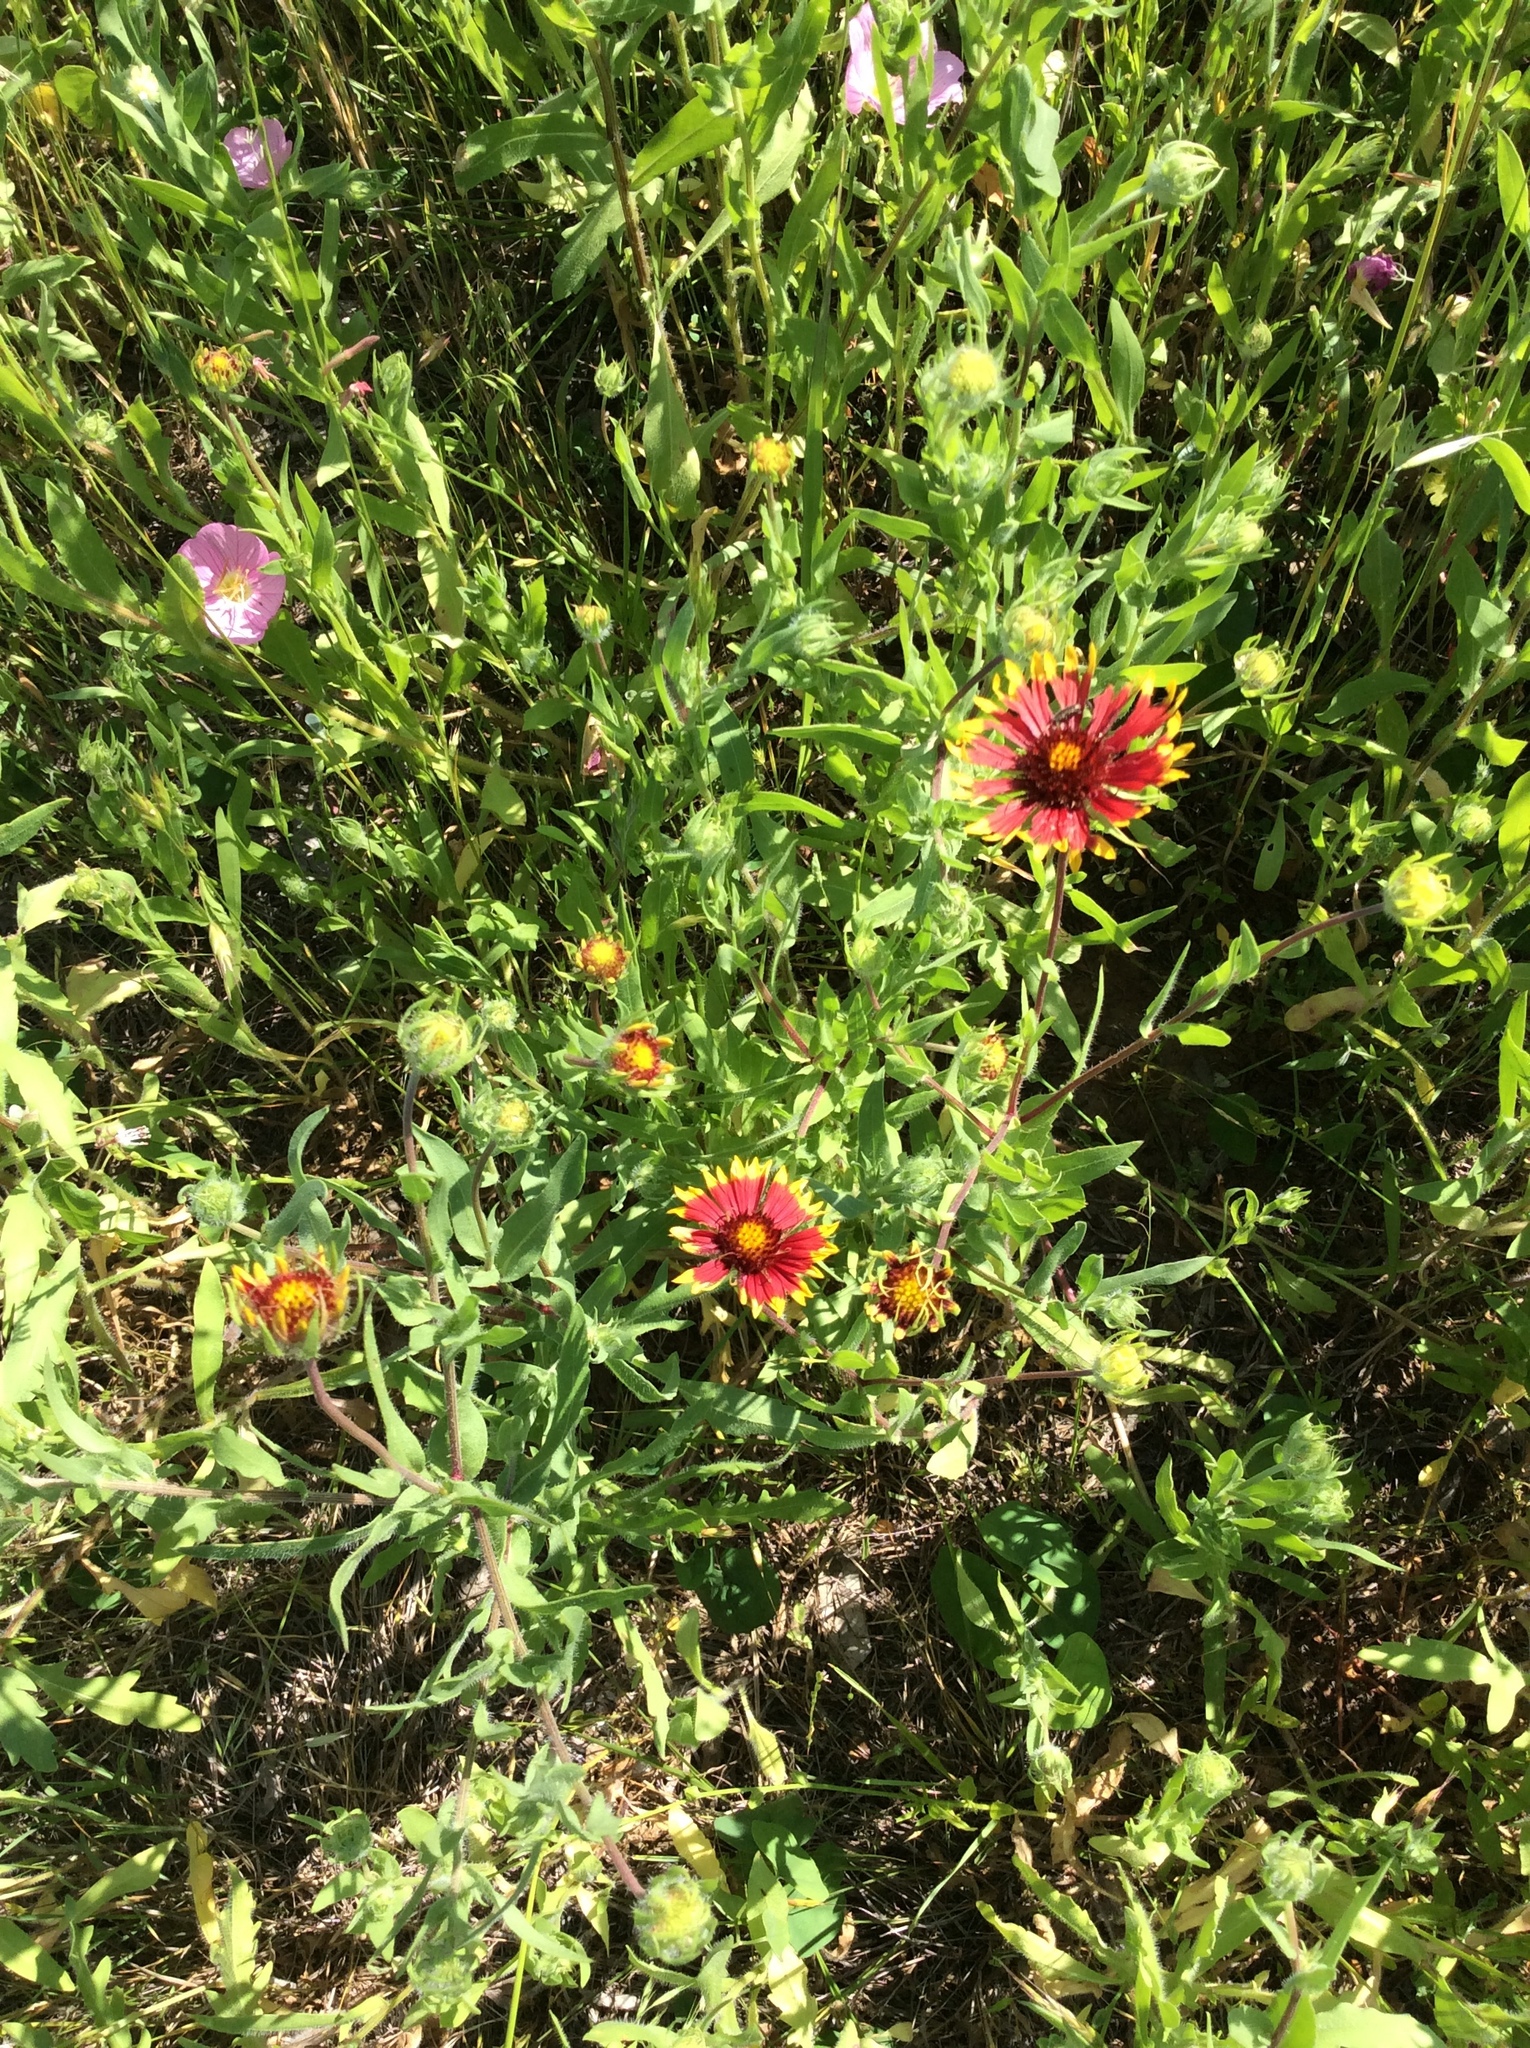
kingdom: Plantae
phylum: Tracheophyta
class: Magnoliopsida
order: Asterales
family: Asteraceae
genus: Gaillardia
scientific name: Gaillardia pulchella
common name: Firewheel
